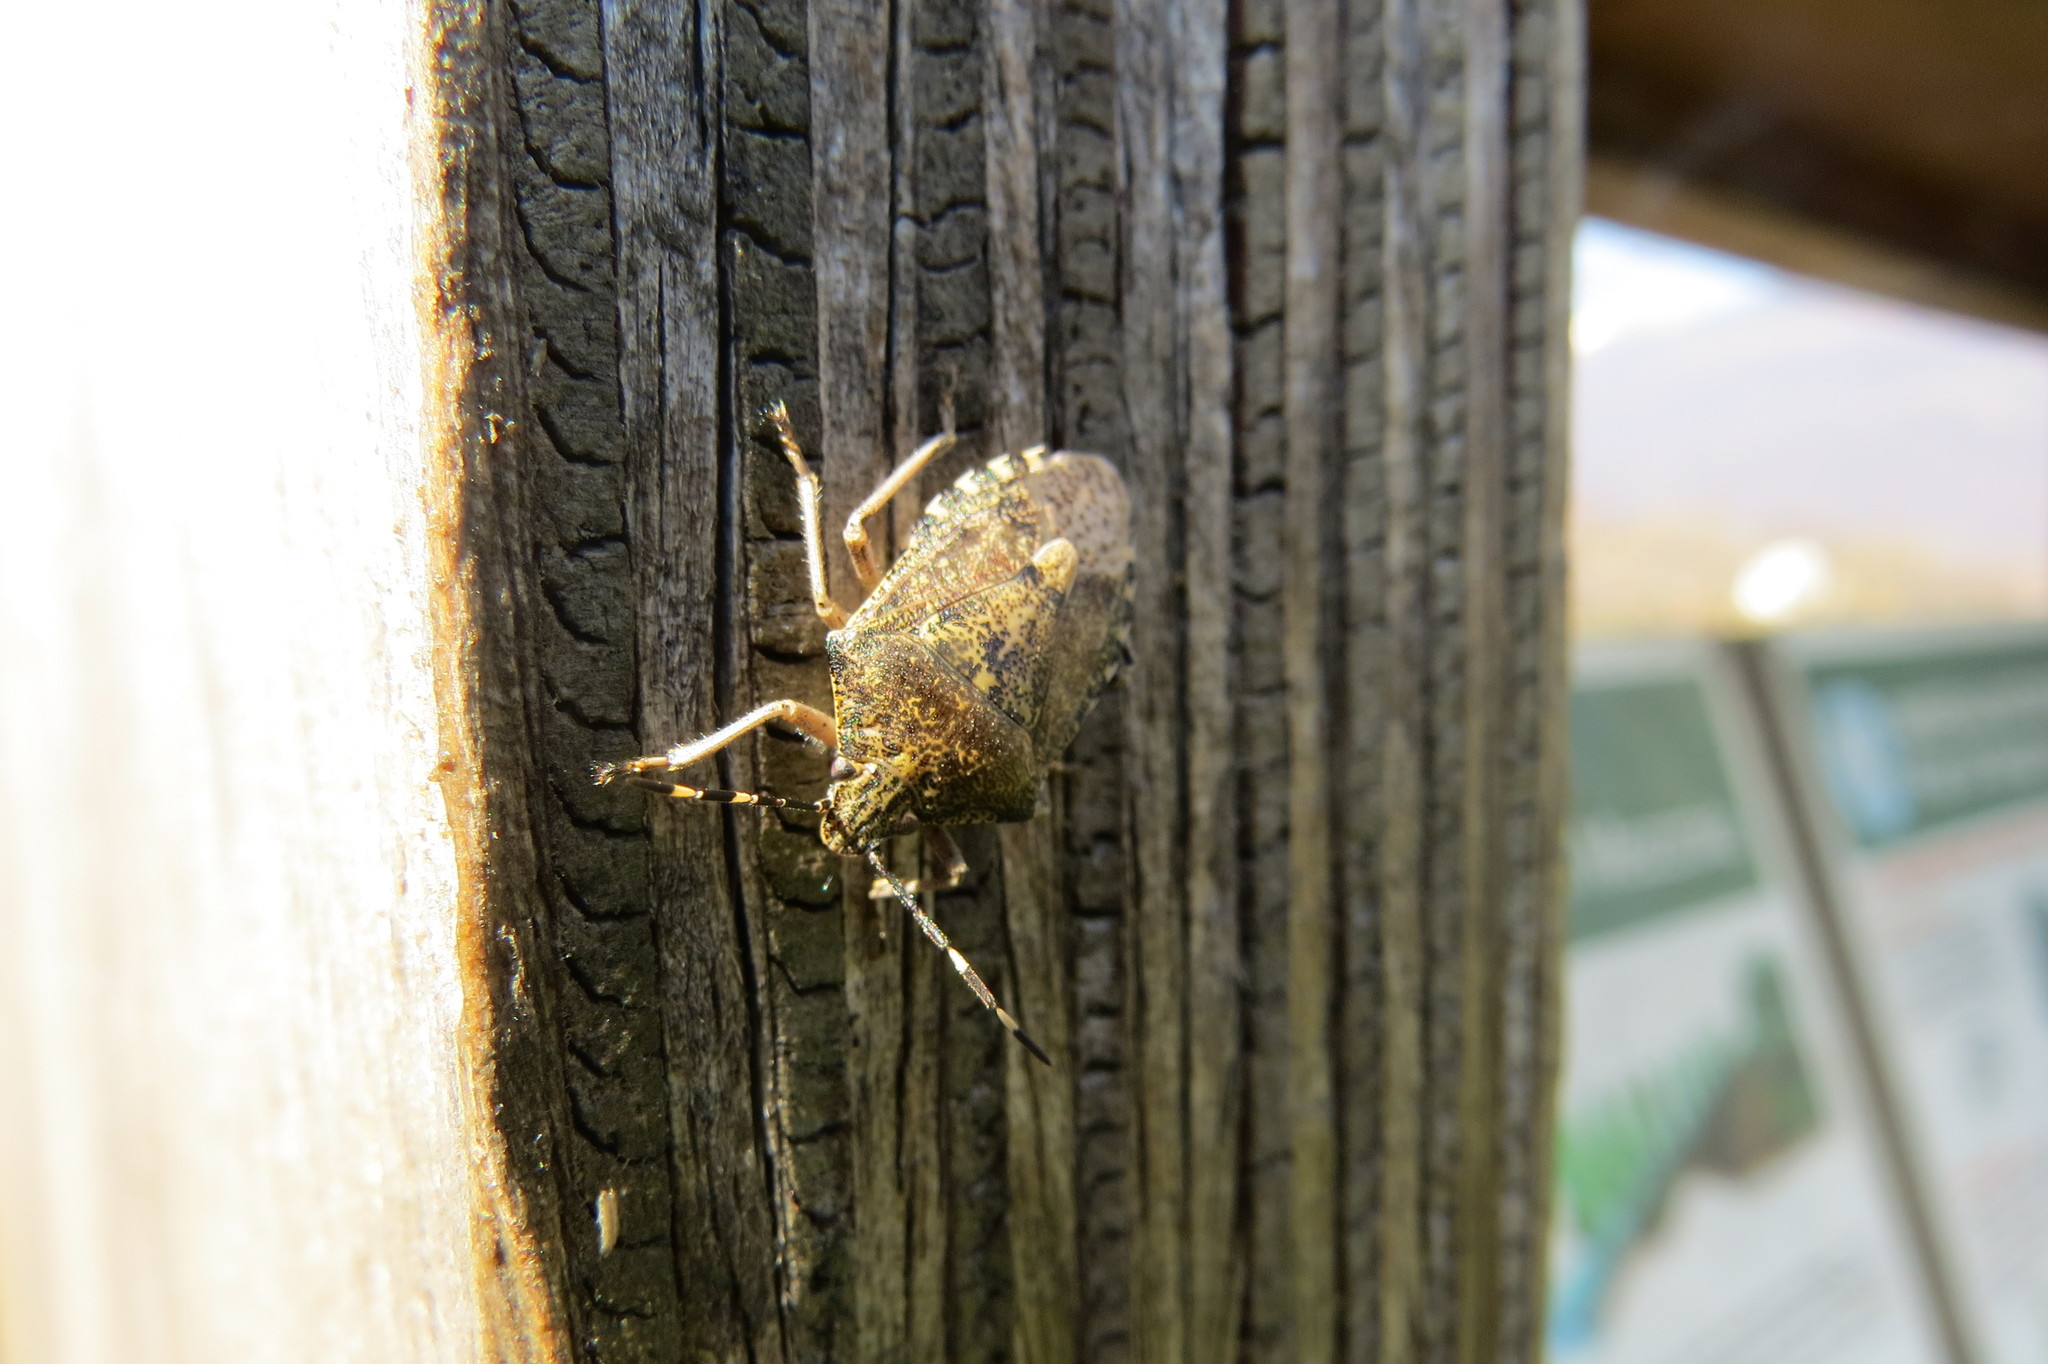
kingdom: Animalia
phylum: Arthropoda
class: Insecta
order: Hemiptera
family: Pentatomidae
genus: Rhaphigaster
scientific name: Rhaphigaster nebulosa
